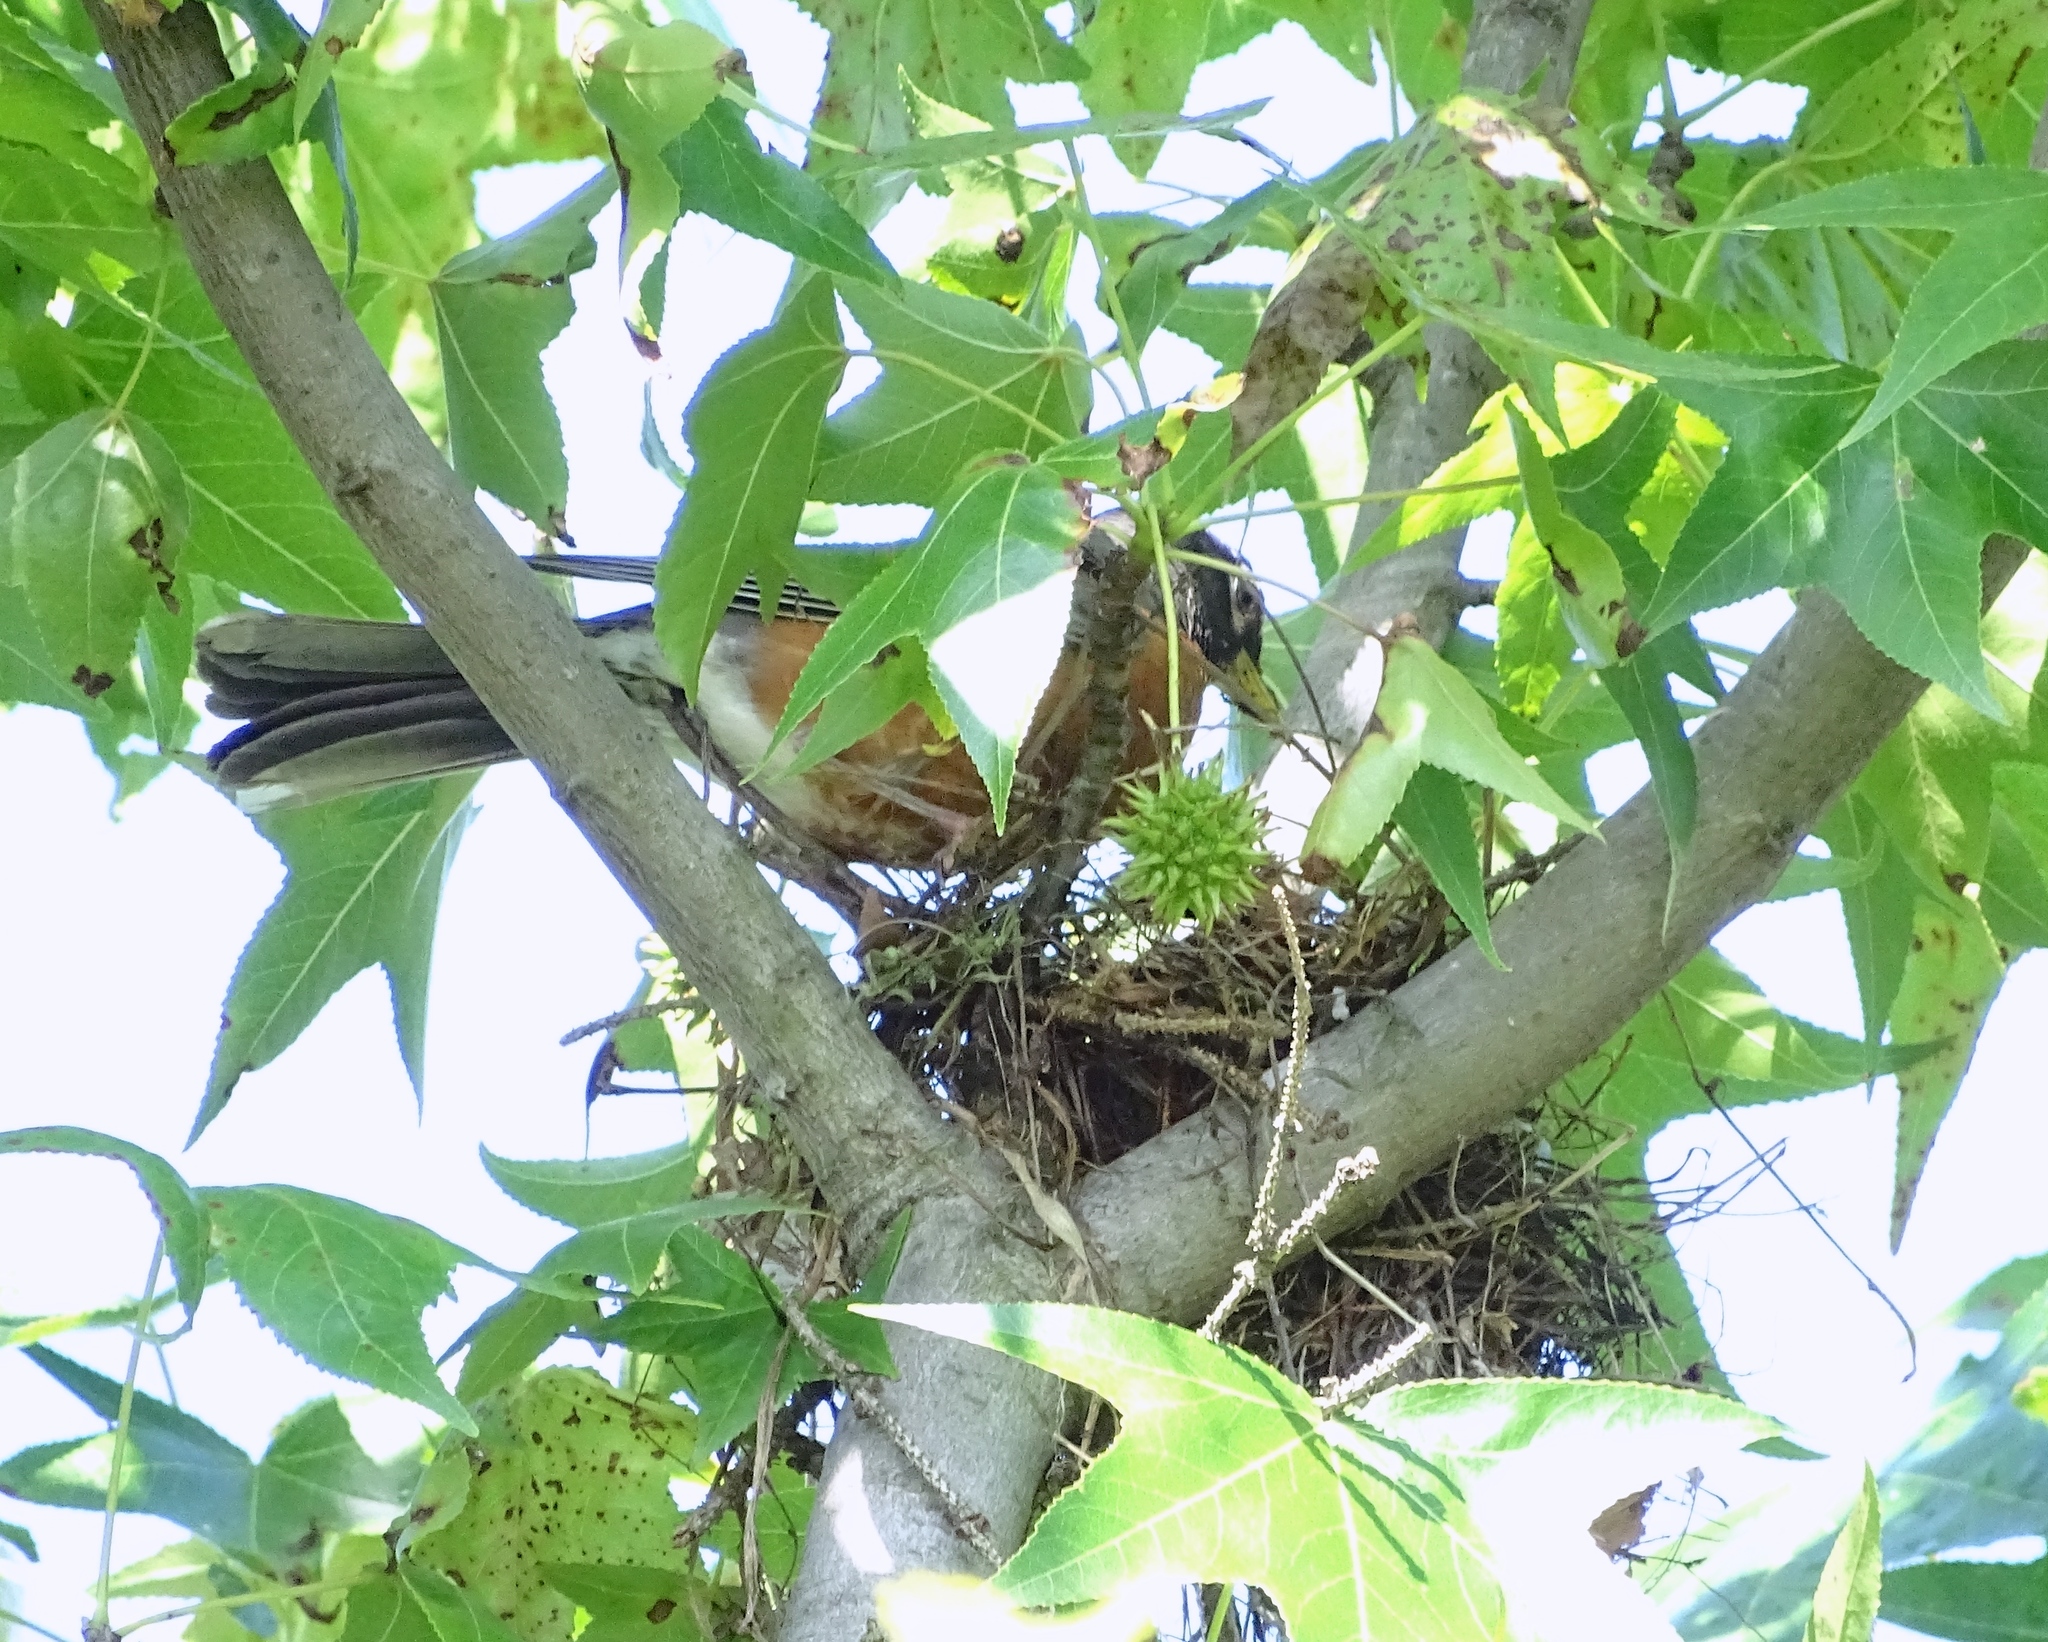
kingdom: Animalia
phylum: Chordata
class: Aves
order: Passeriformes
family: Turdidae
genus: Turdus
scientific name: Turdus migratorius
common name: American robin
